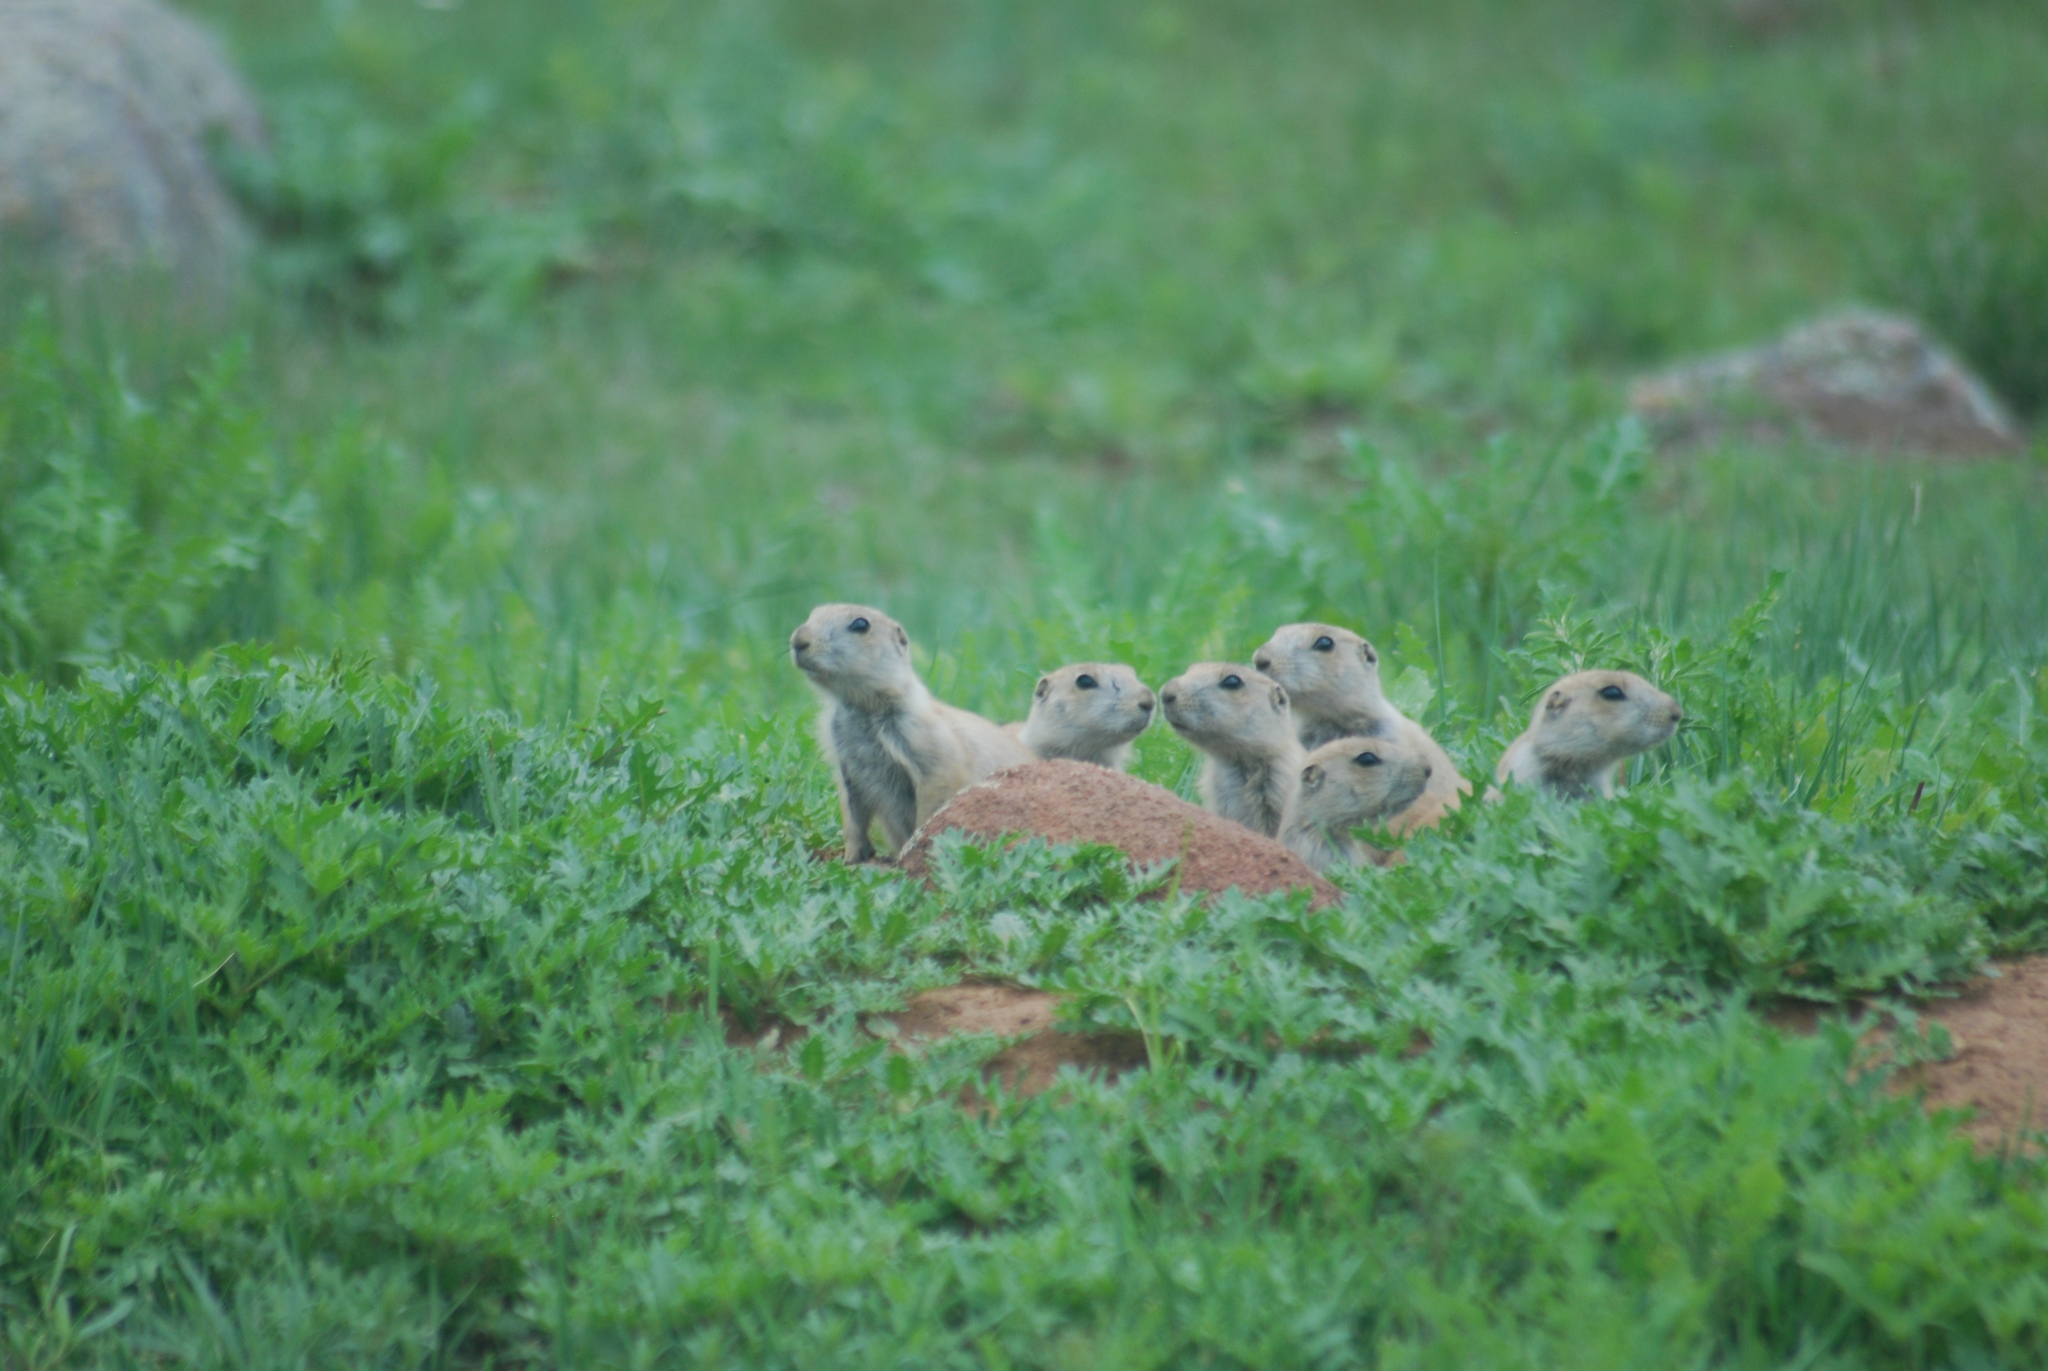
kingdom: Animalia
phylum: Chordata
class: Mammalia
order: Rodentia
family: Sciuridae
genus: Cynomys
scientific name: Cynomys ludovicianus
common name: Black-tailed prairie dog
